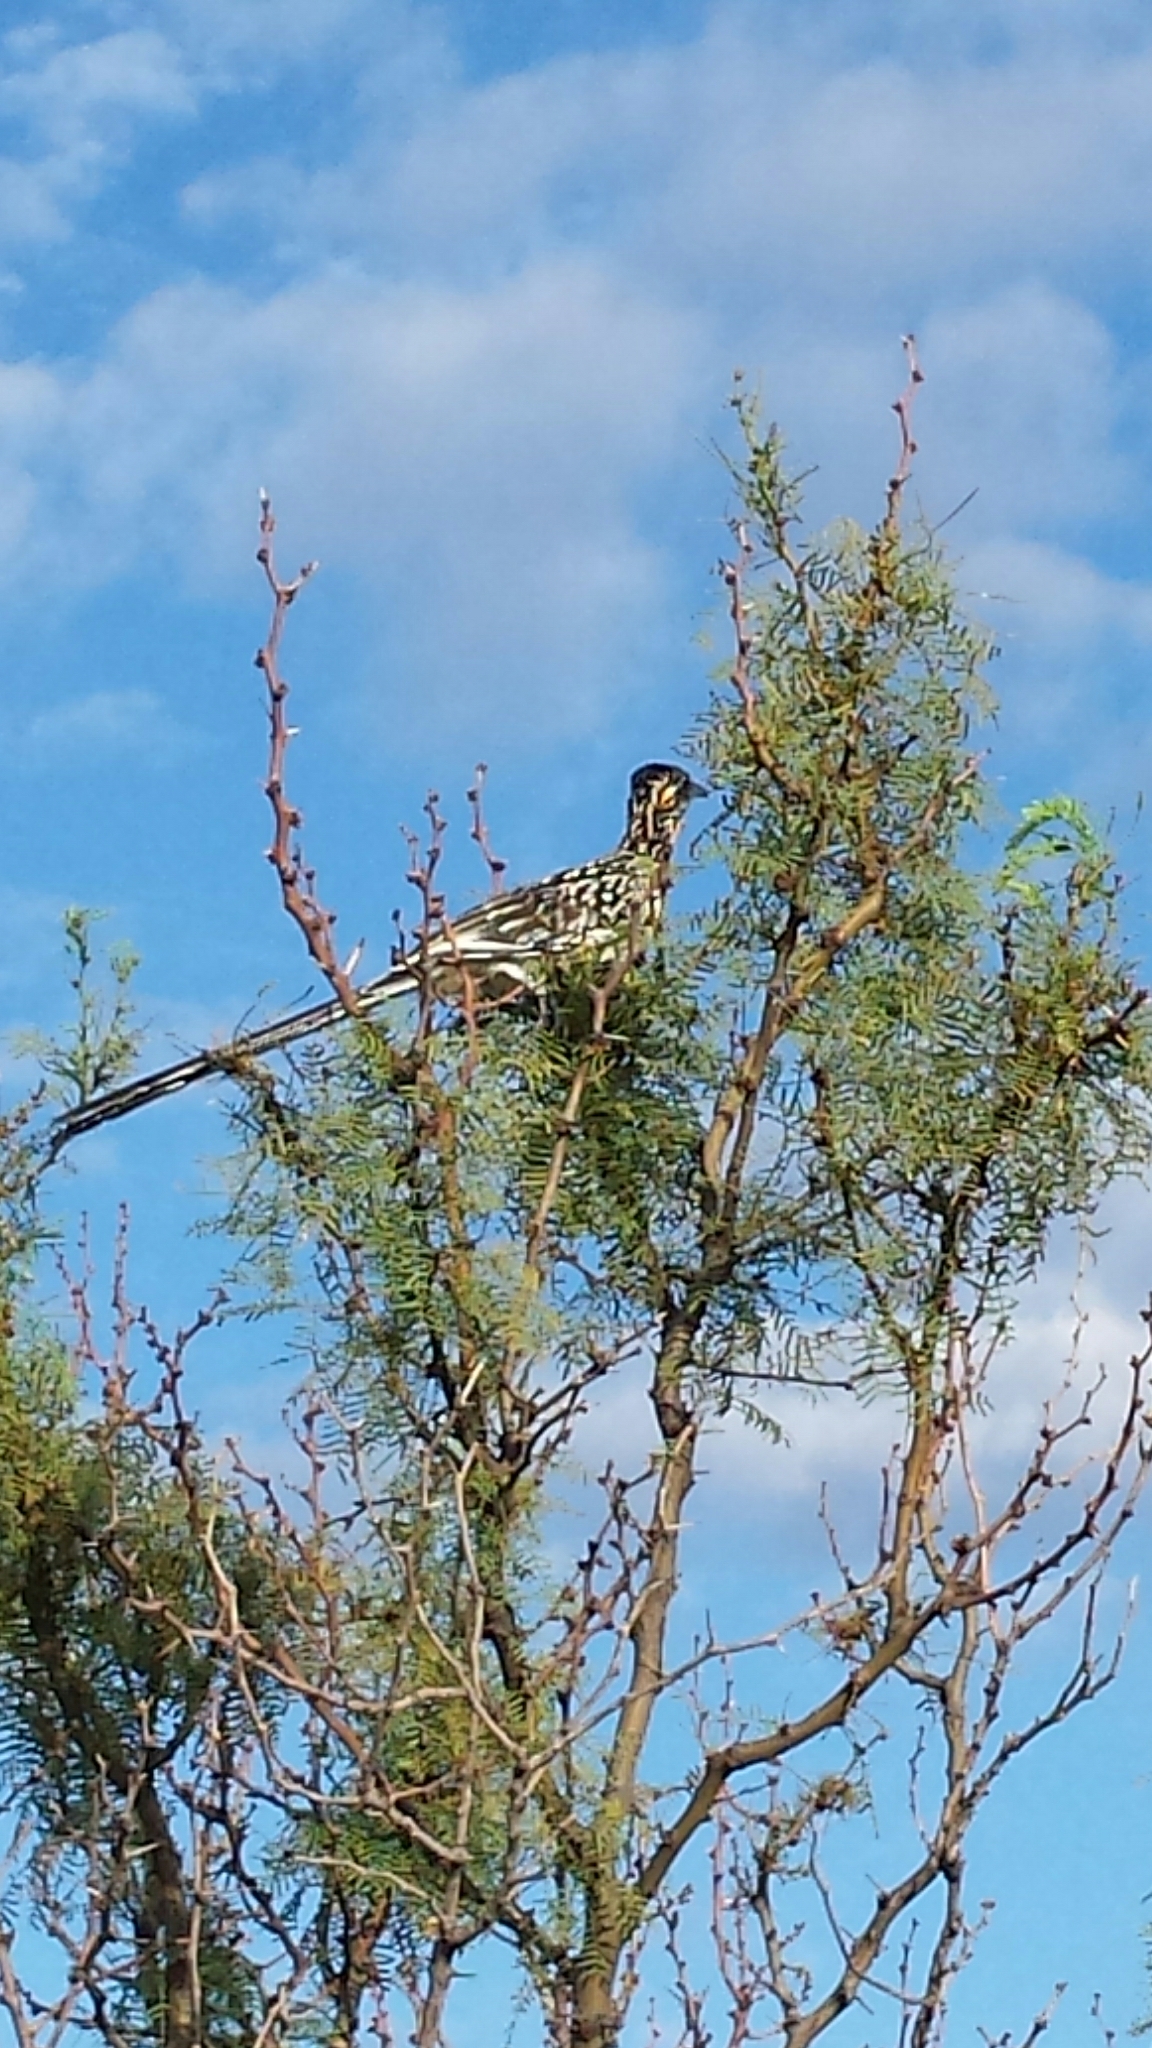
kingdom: Animalia
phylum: Chordata
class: Aves
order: Cuculiformes
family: Cuculidae
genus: Geococcyx
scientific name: Geococcyx californianus
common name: Greater roadrunner
